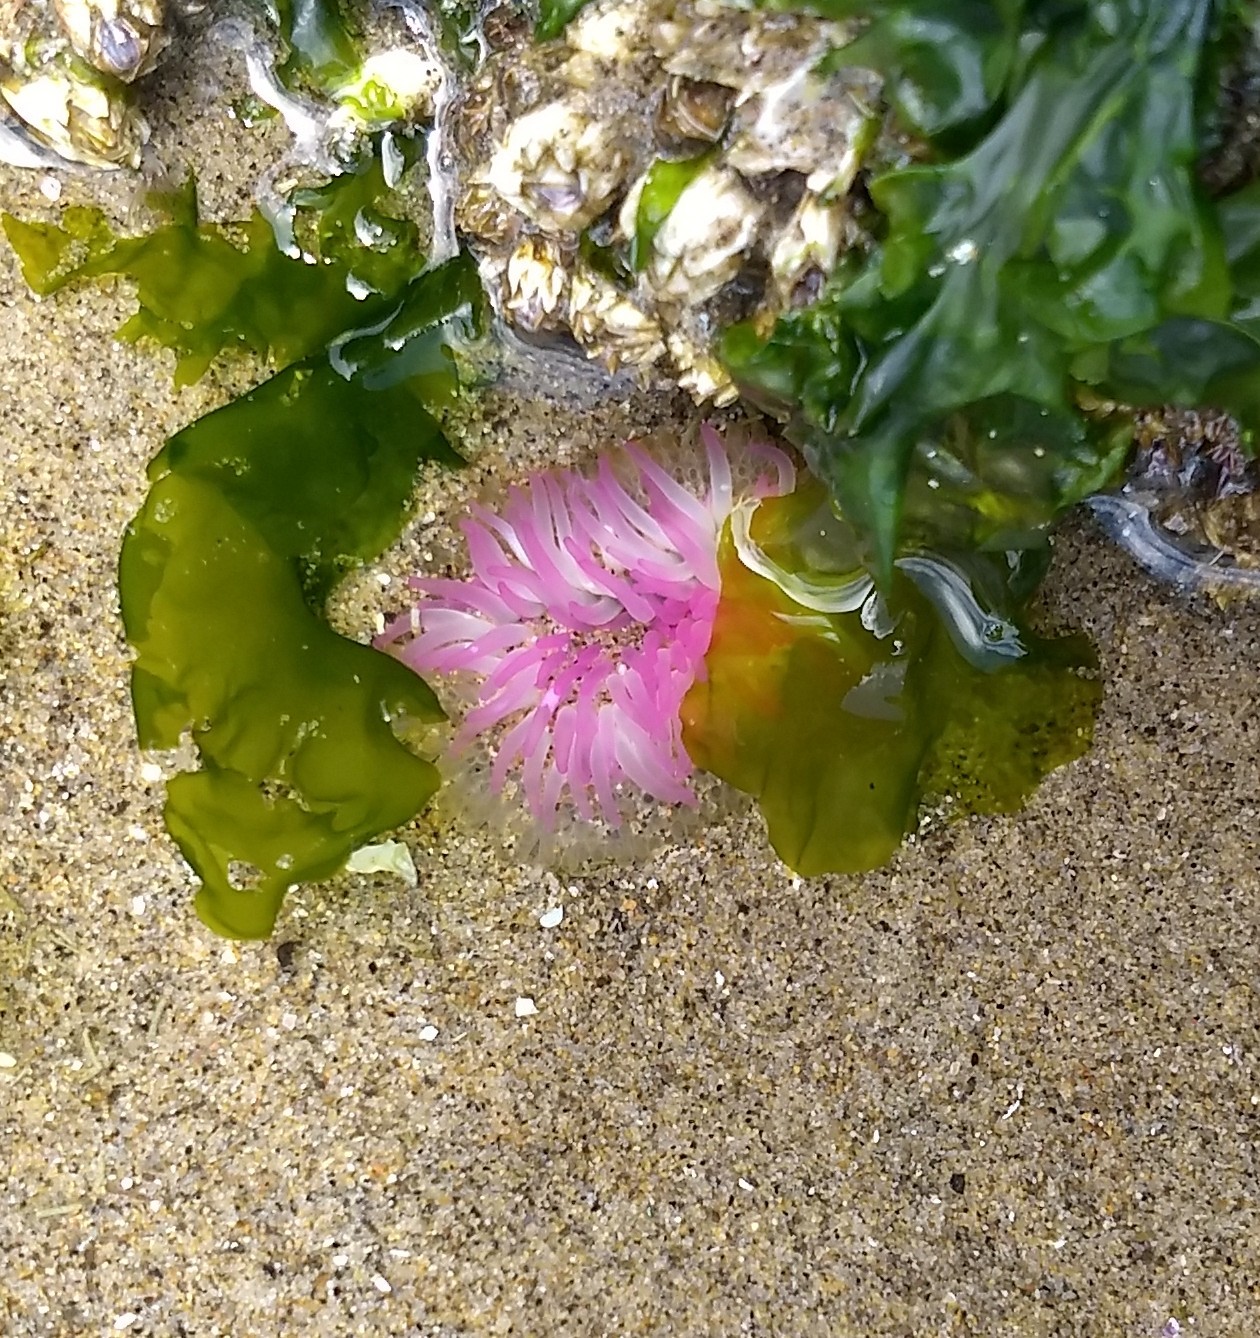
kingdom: Animalia
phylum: Cnidaria
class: Anthozoa
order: Actiniaria
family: Actiniidae
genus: Anthopleura
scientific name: Anthopleura elegantissima
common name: Clonal anemone
